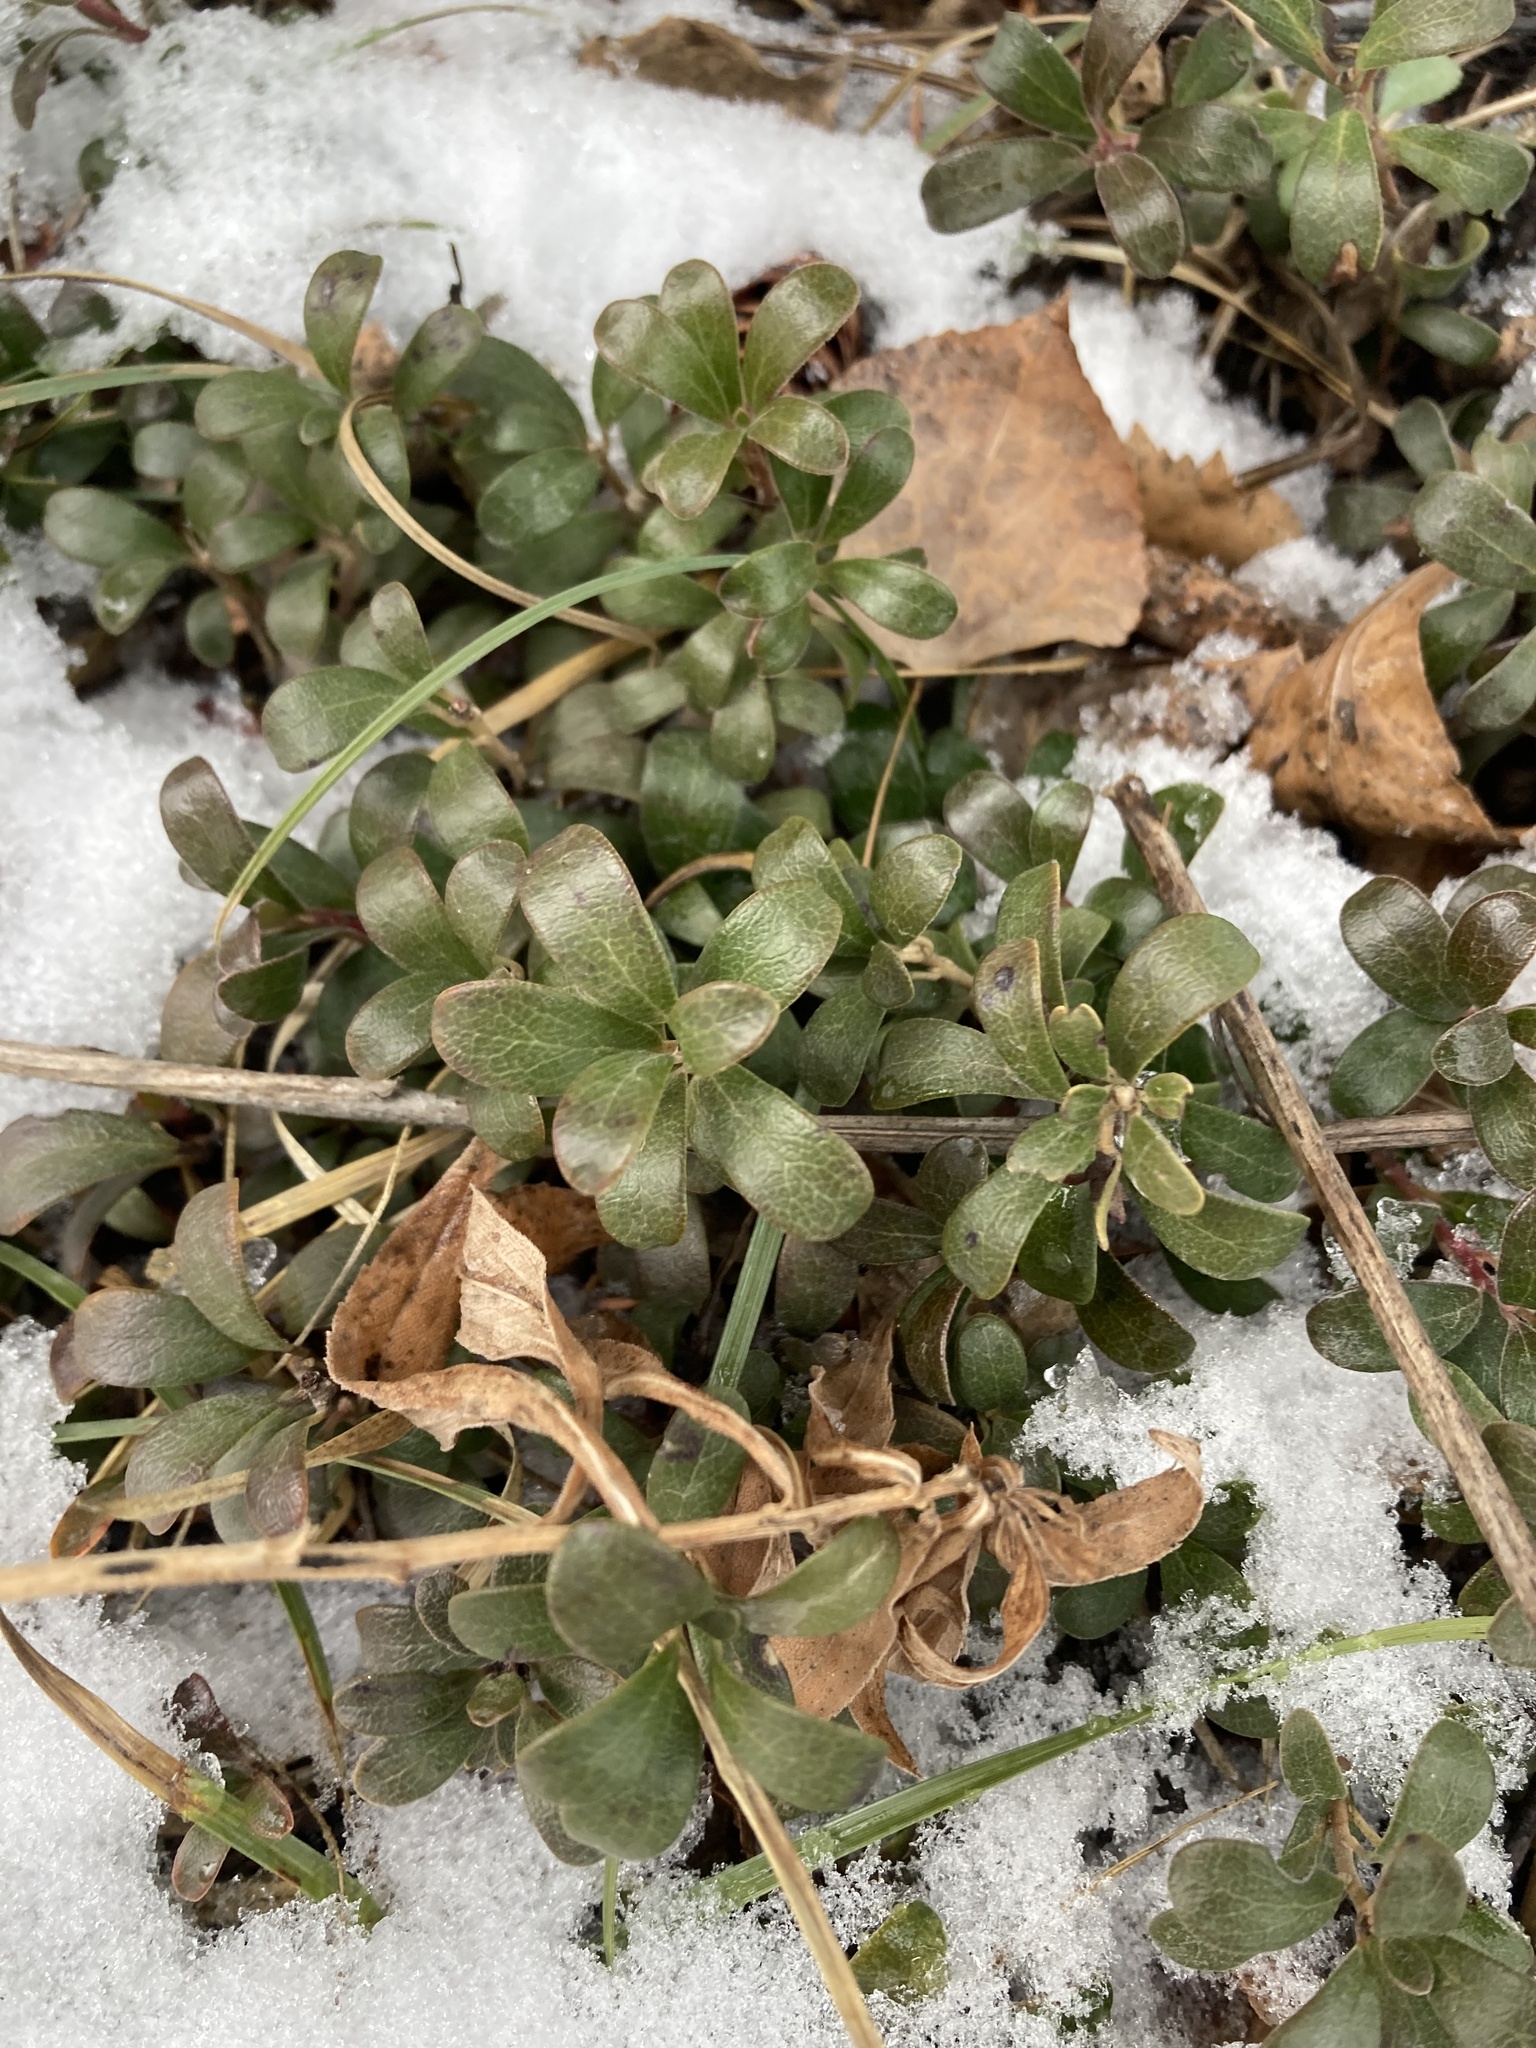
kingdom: Plantae
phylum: Tracheophyta
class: Magnoliopsida
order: Ericales
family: Ericaceae
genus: Arctostaphylos
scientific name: Arctostaphylos uva-ursi
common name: Bearberry
